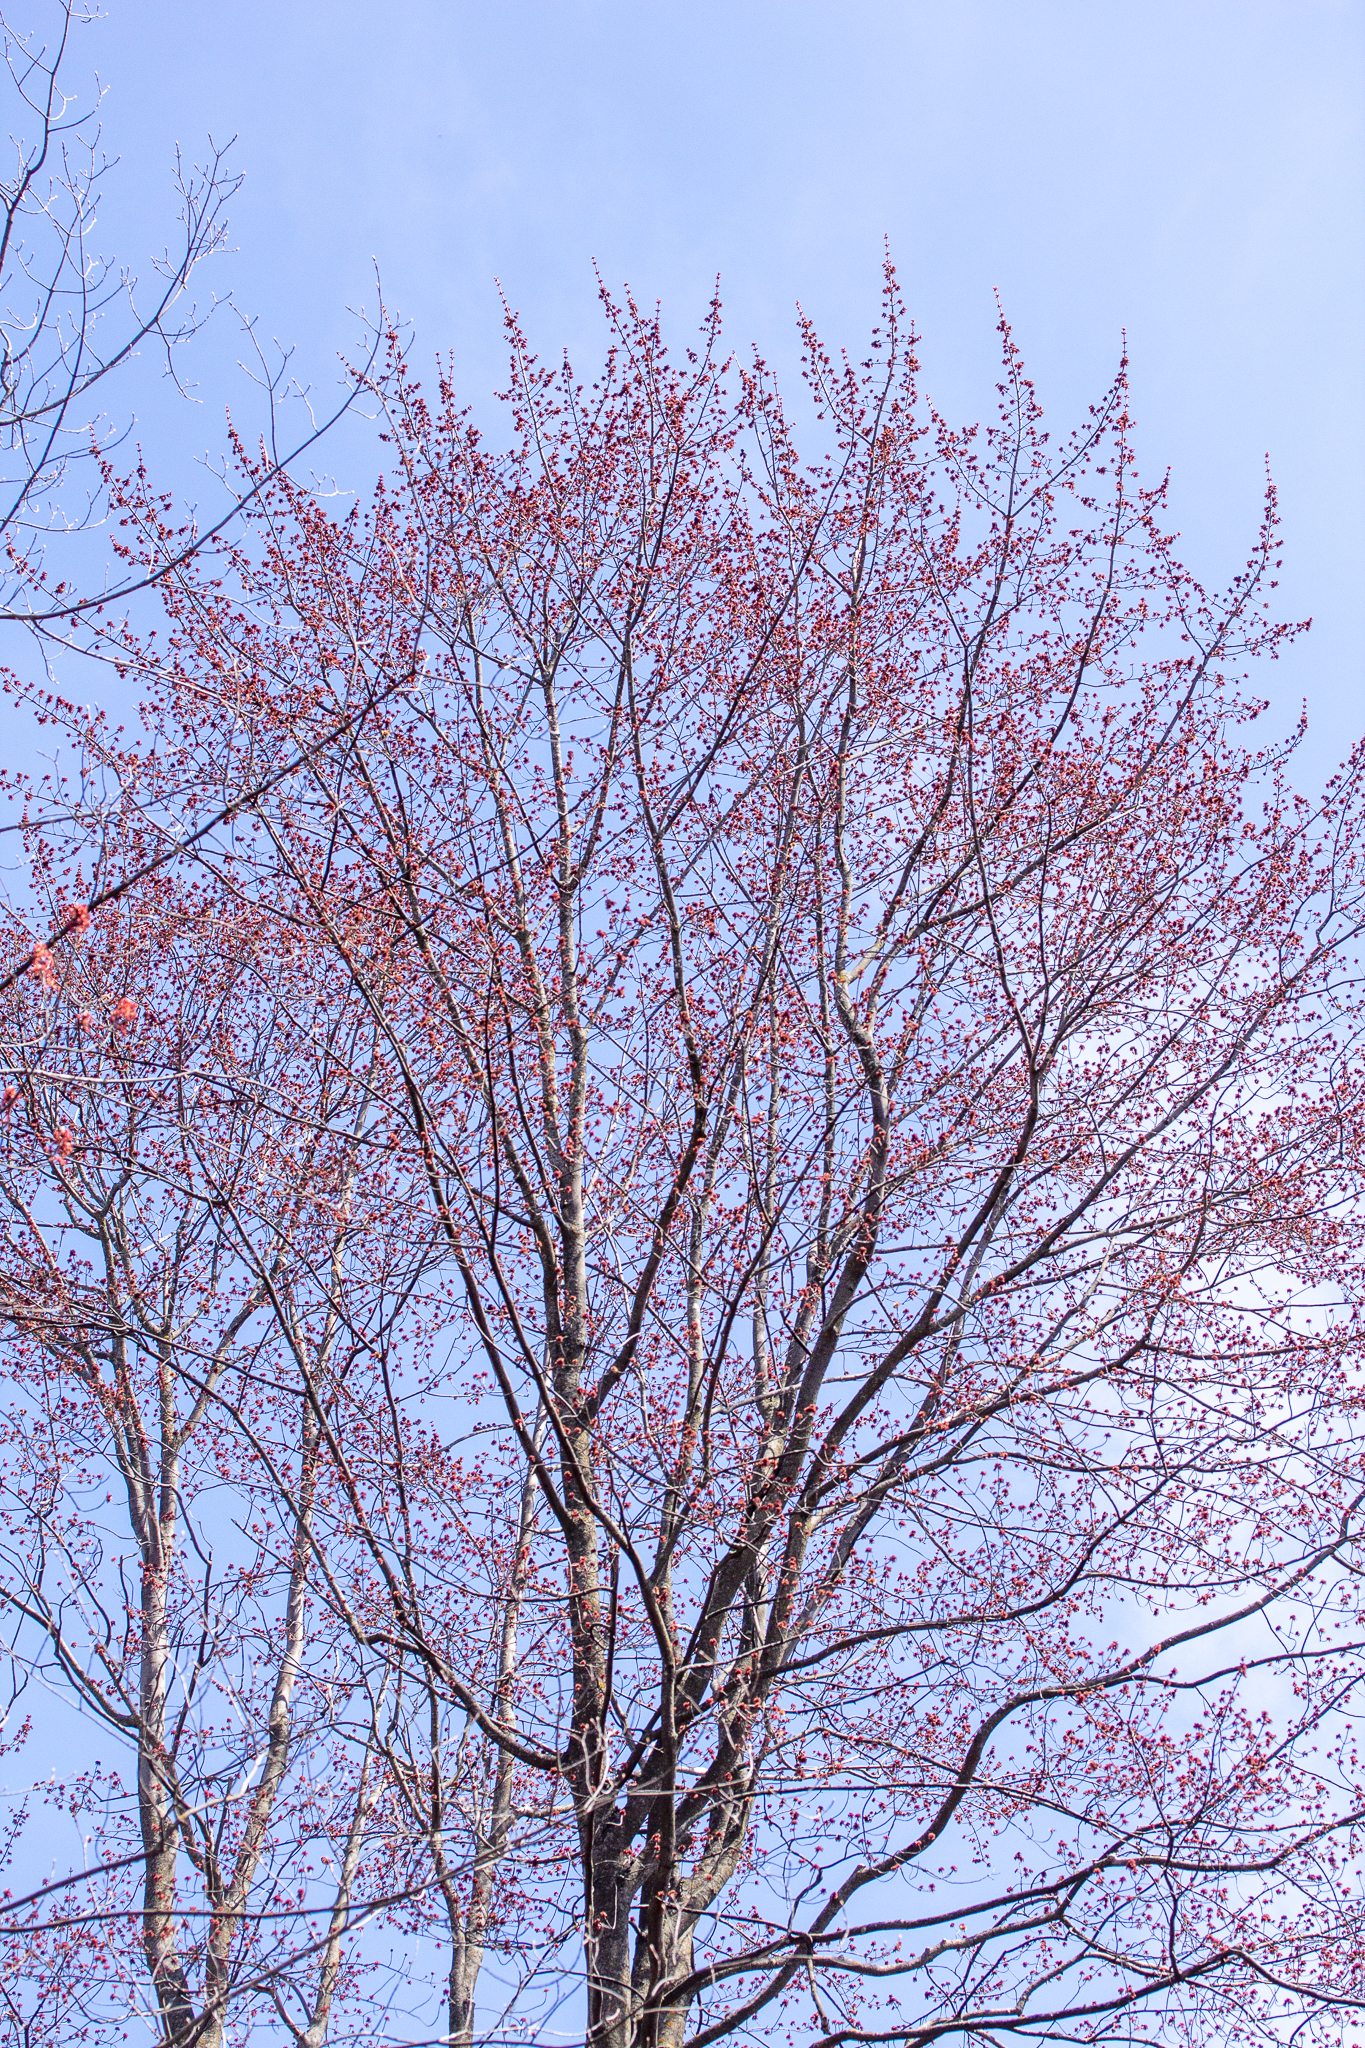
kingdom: Plantae
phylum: Tracheophyta
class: Magnoliopsida
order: Sapindales
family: Sapindaceae
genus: Acer
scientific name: Acer rubrum
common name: Red maple
